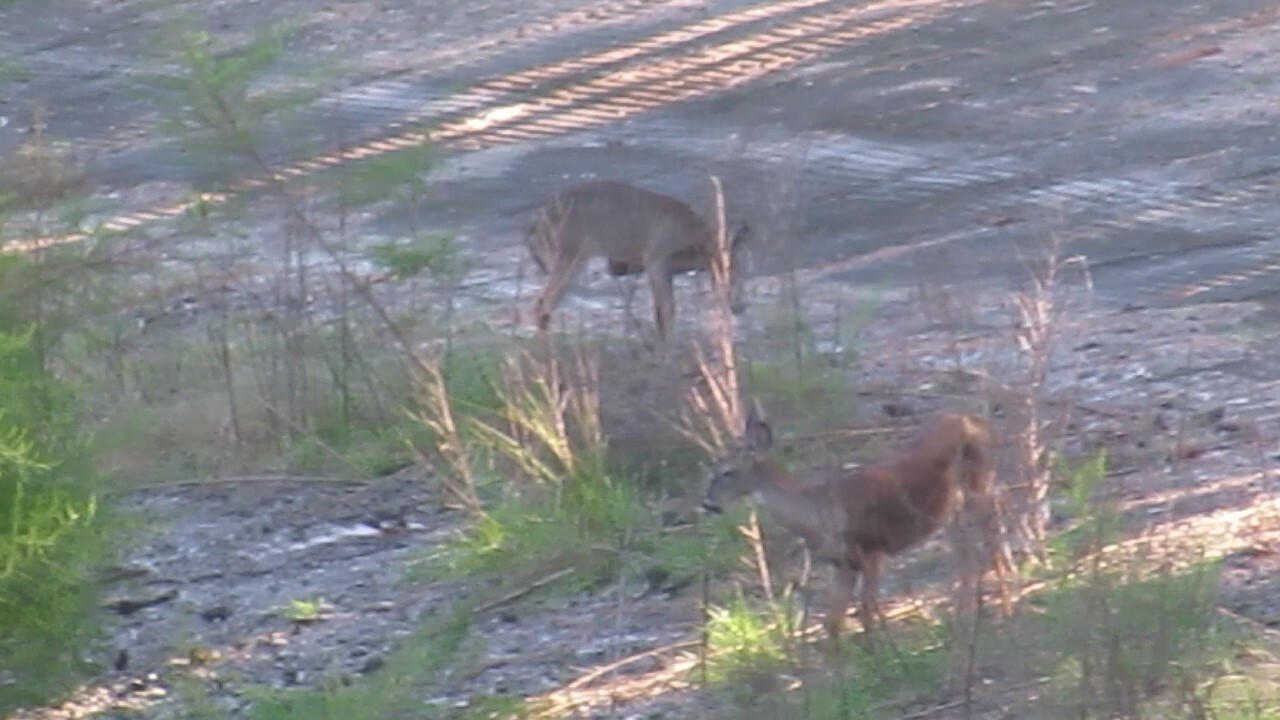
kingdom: Animalia
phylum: Chordata
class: Mammalia
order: Artiodactyla
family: Cervidae
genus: Odocoileus
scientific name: Odocoileus virginianus
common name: White-tailed deer
